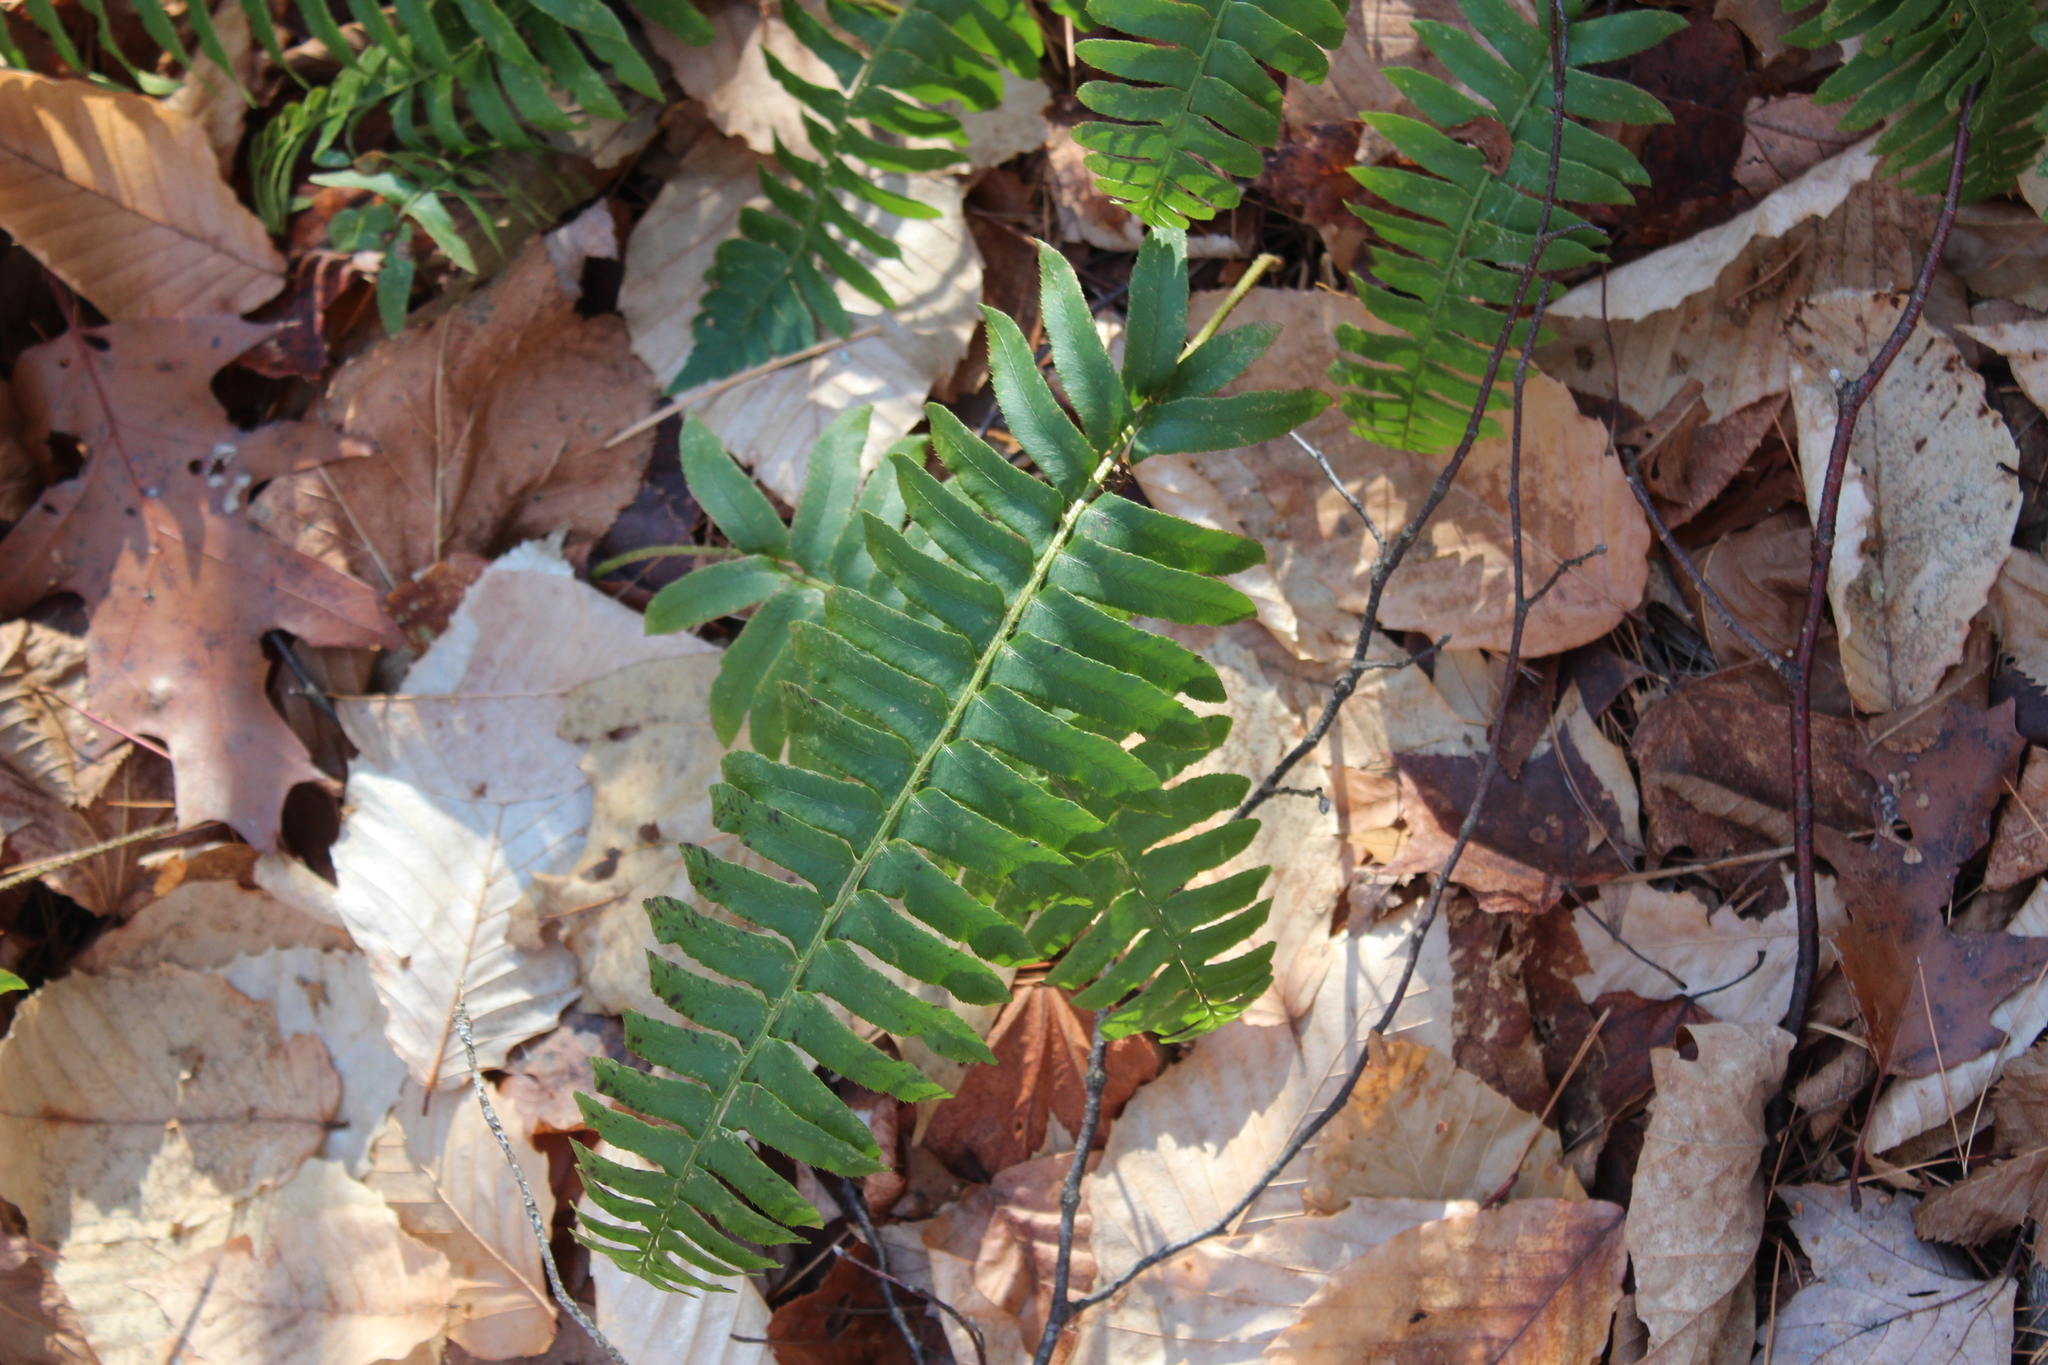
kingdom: Plantae
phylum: Tracheophyta
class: Polypodiopsida
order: Polypodiales
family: Dryopteridaceae
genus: Polystichum
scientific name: Polystichum acrostichoides
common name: Christmas fern
